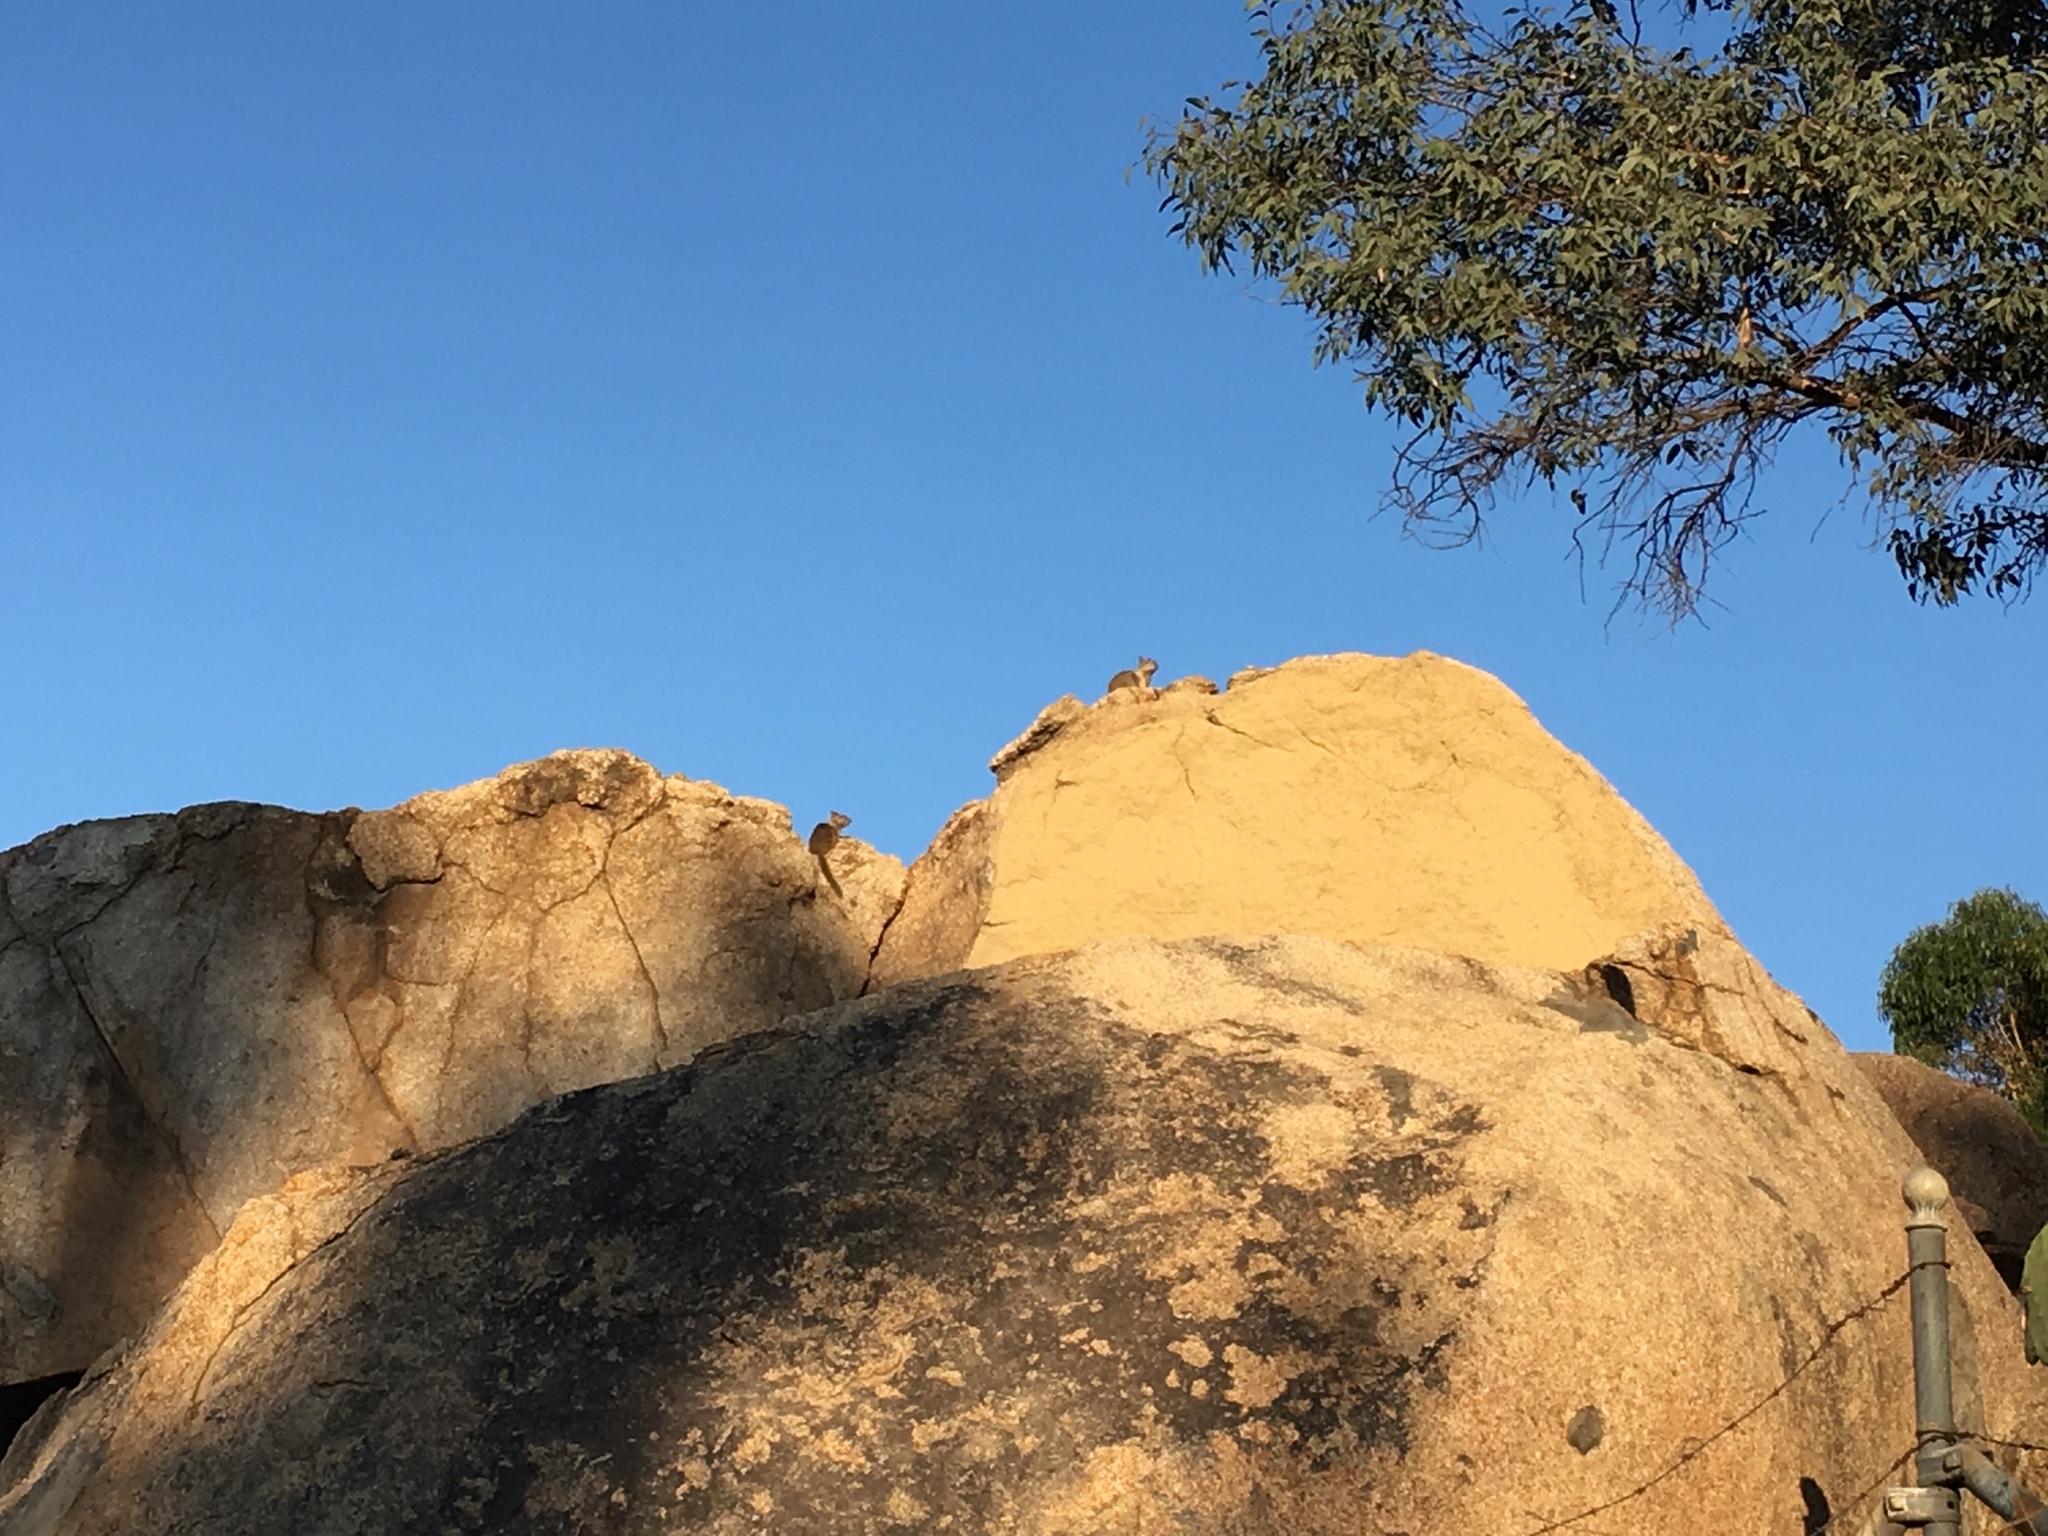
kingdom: Animalia
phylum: Chordata
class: Mammalia
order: Rodentia
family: Sciuridae
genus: Otospermophilus
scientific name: Otospermophilus beecheyi
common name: California ground squirrel
